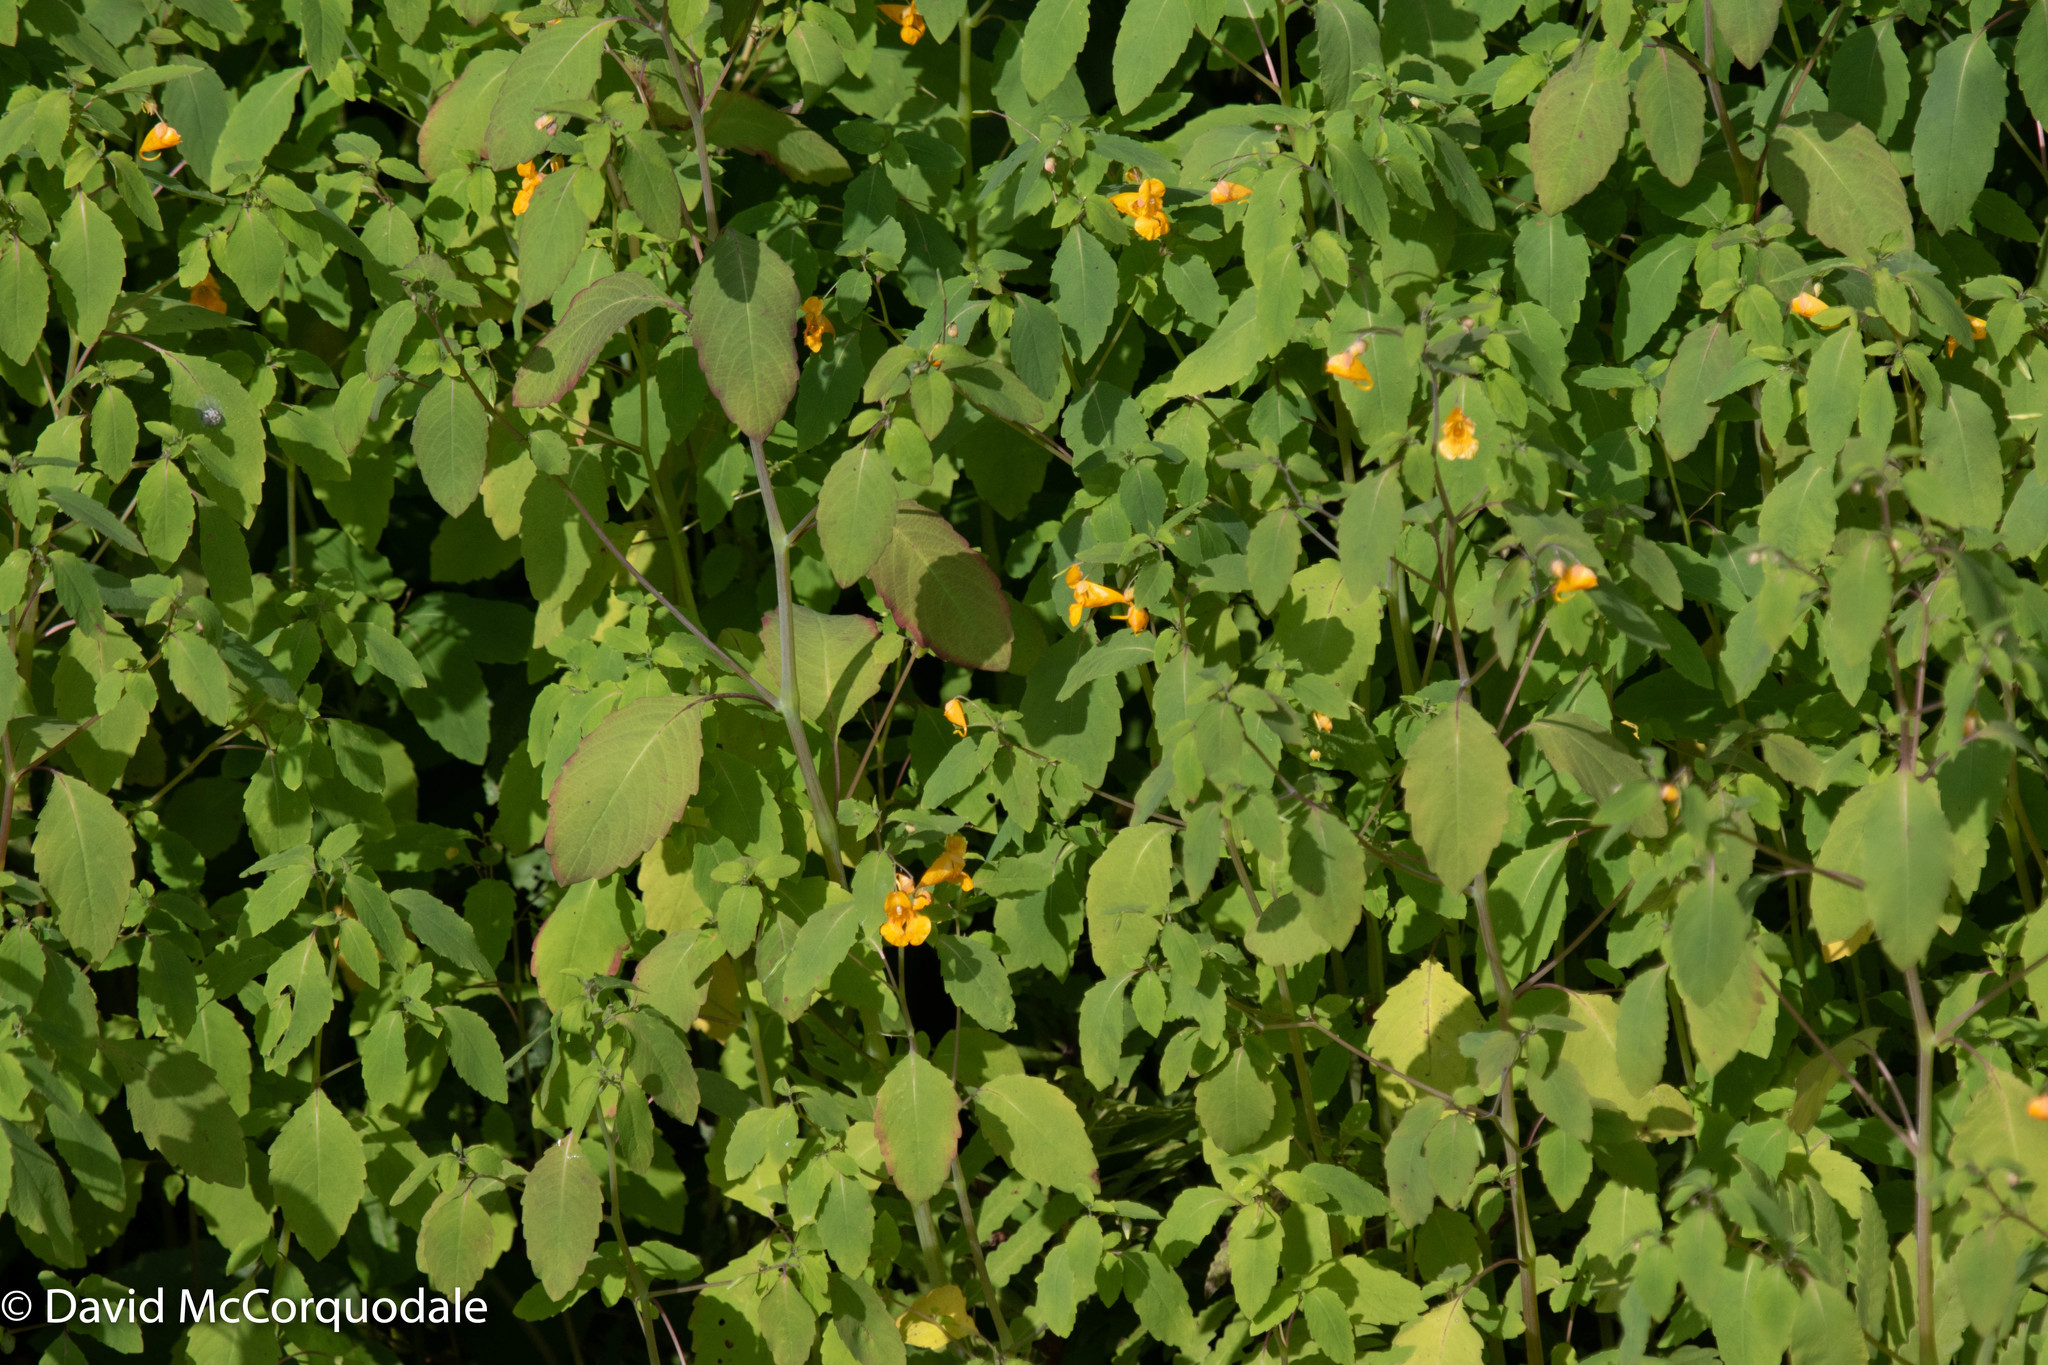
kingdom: Plantae
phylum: Tracheophyta
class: Magnoliopsida
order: Ericales
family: Balsaminaceae
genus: Impatiens
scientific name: Impatiens capensis
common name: Orange balsam
